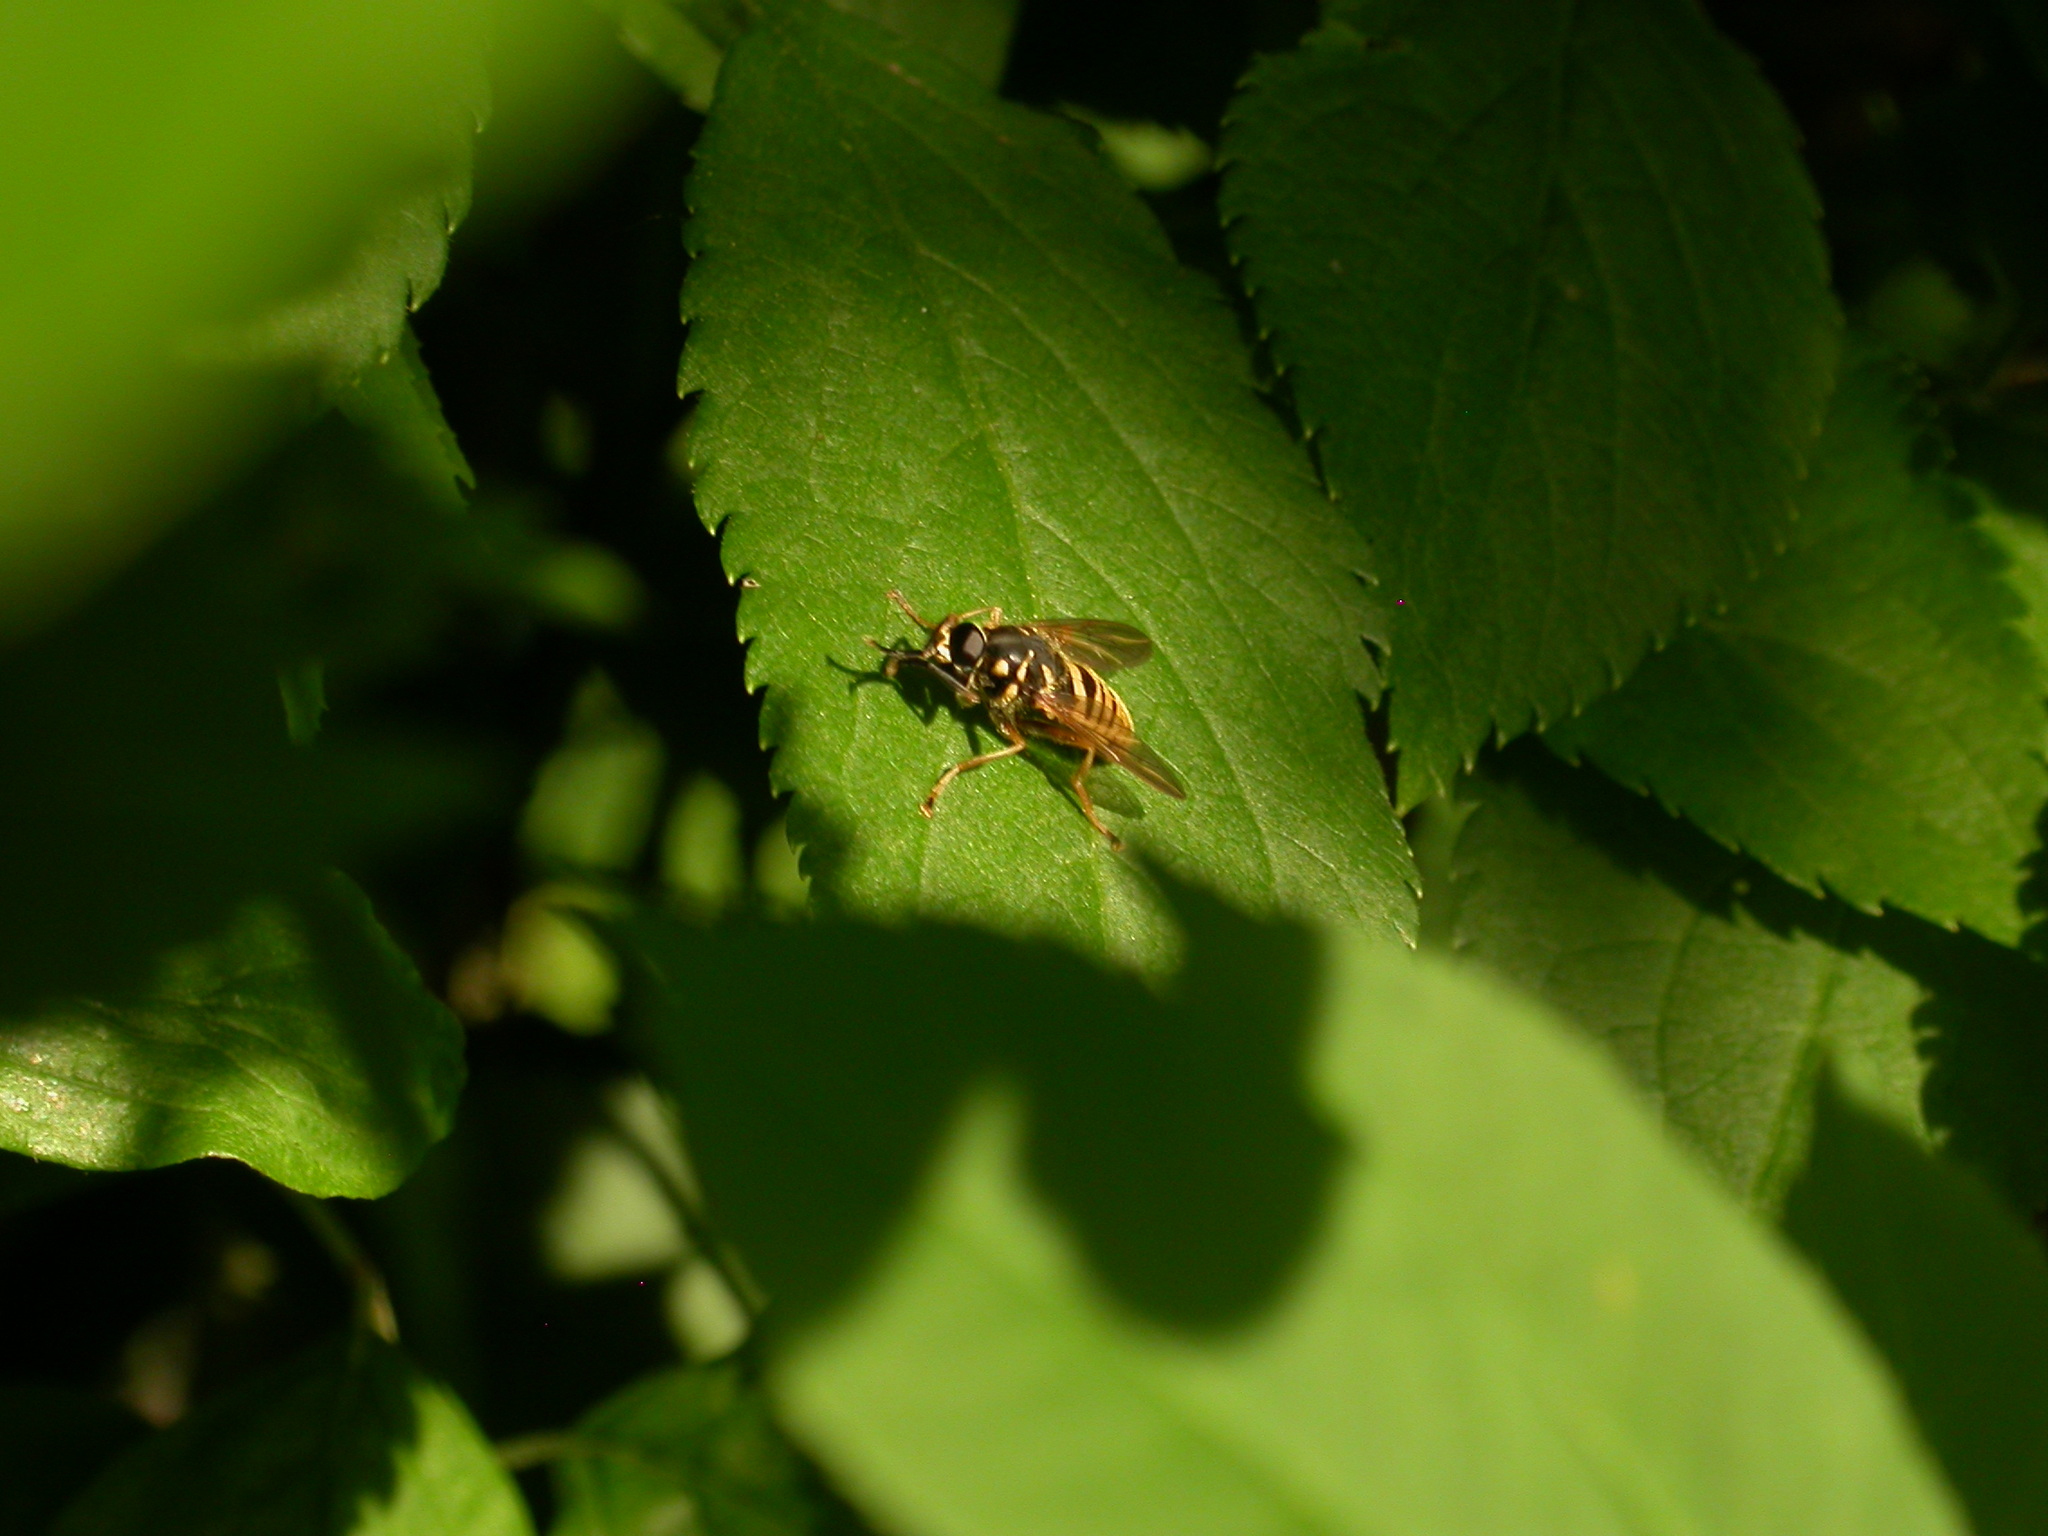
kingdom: Animalia
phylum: Arthropoda
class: Insecta
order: Diptera
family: Syrphidae
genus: Temnostoma
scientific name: Temnostoma vespiforme
